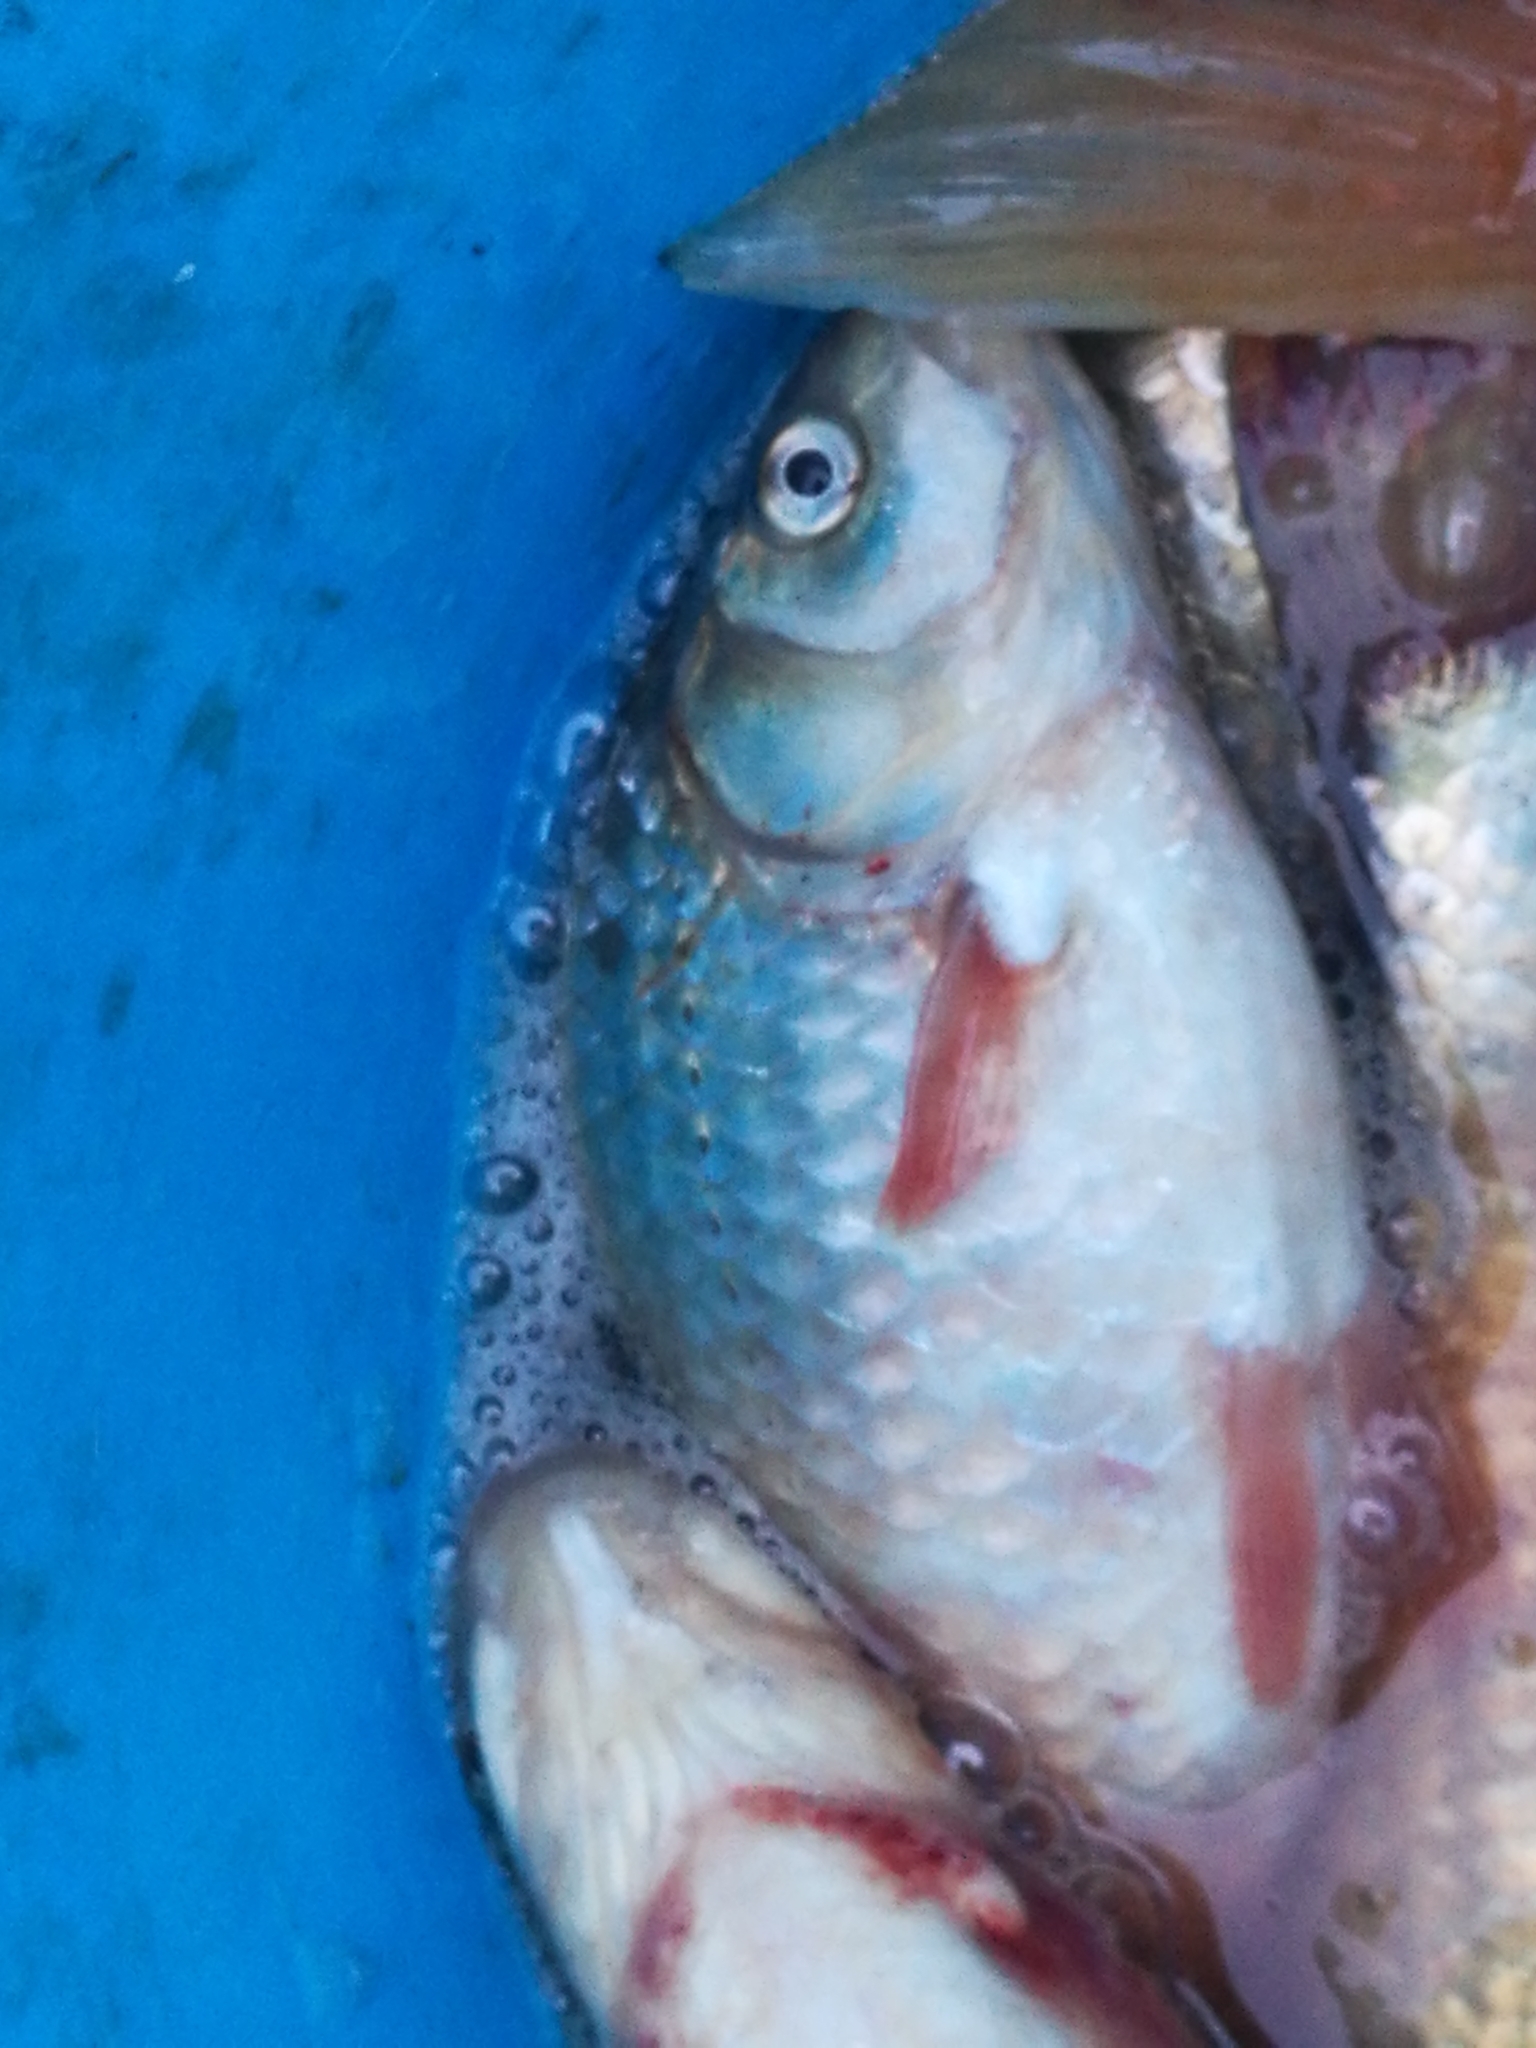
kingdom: Animalia
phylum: Chordata
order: Cypriniformes
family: Cyprinidae
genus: Carassius
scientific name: Carassius auratus
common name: Goldfish
